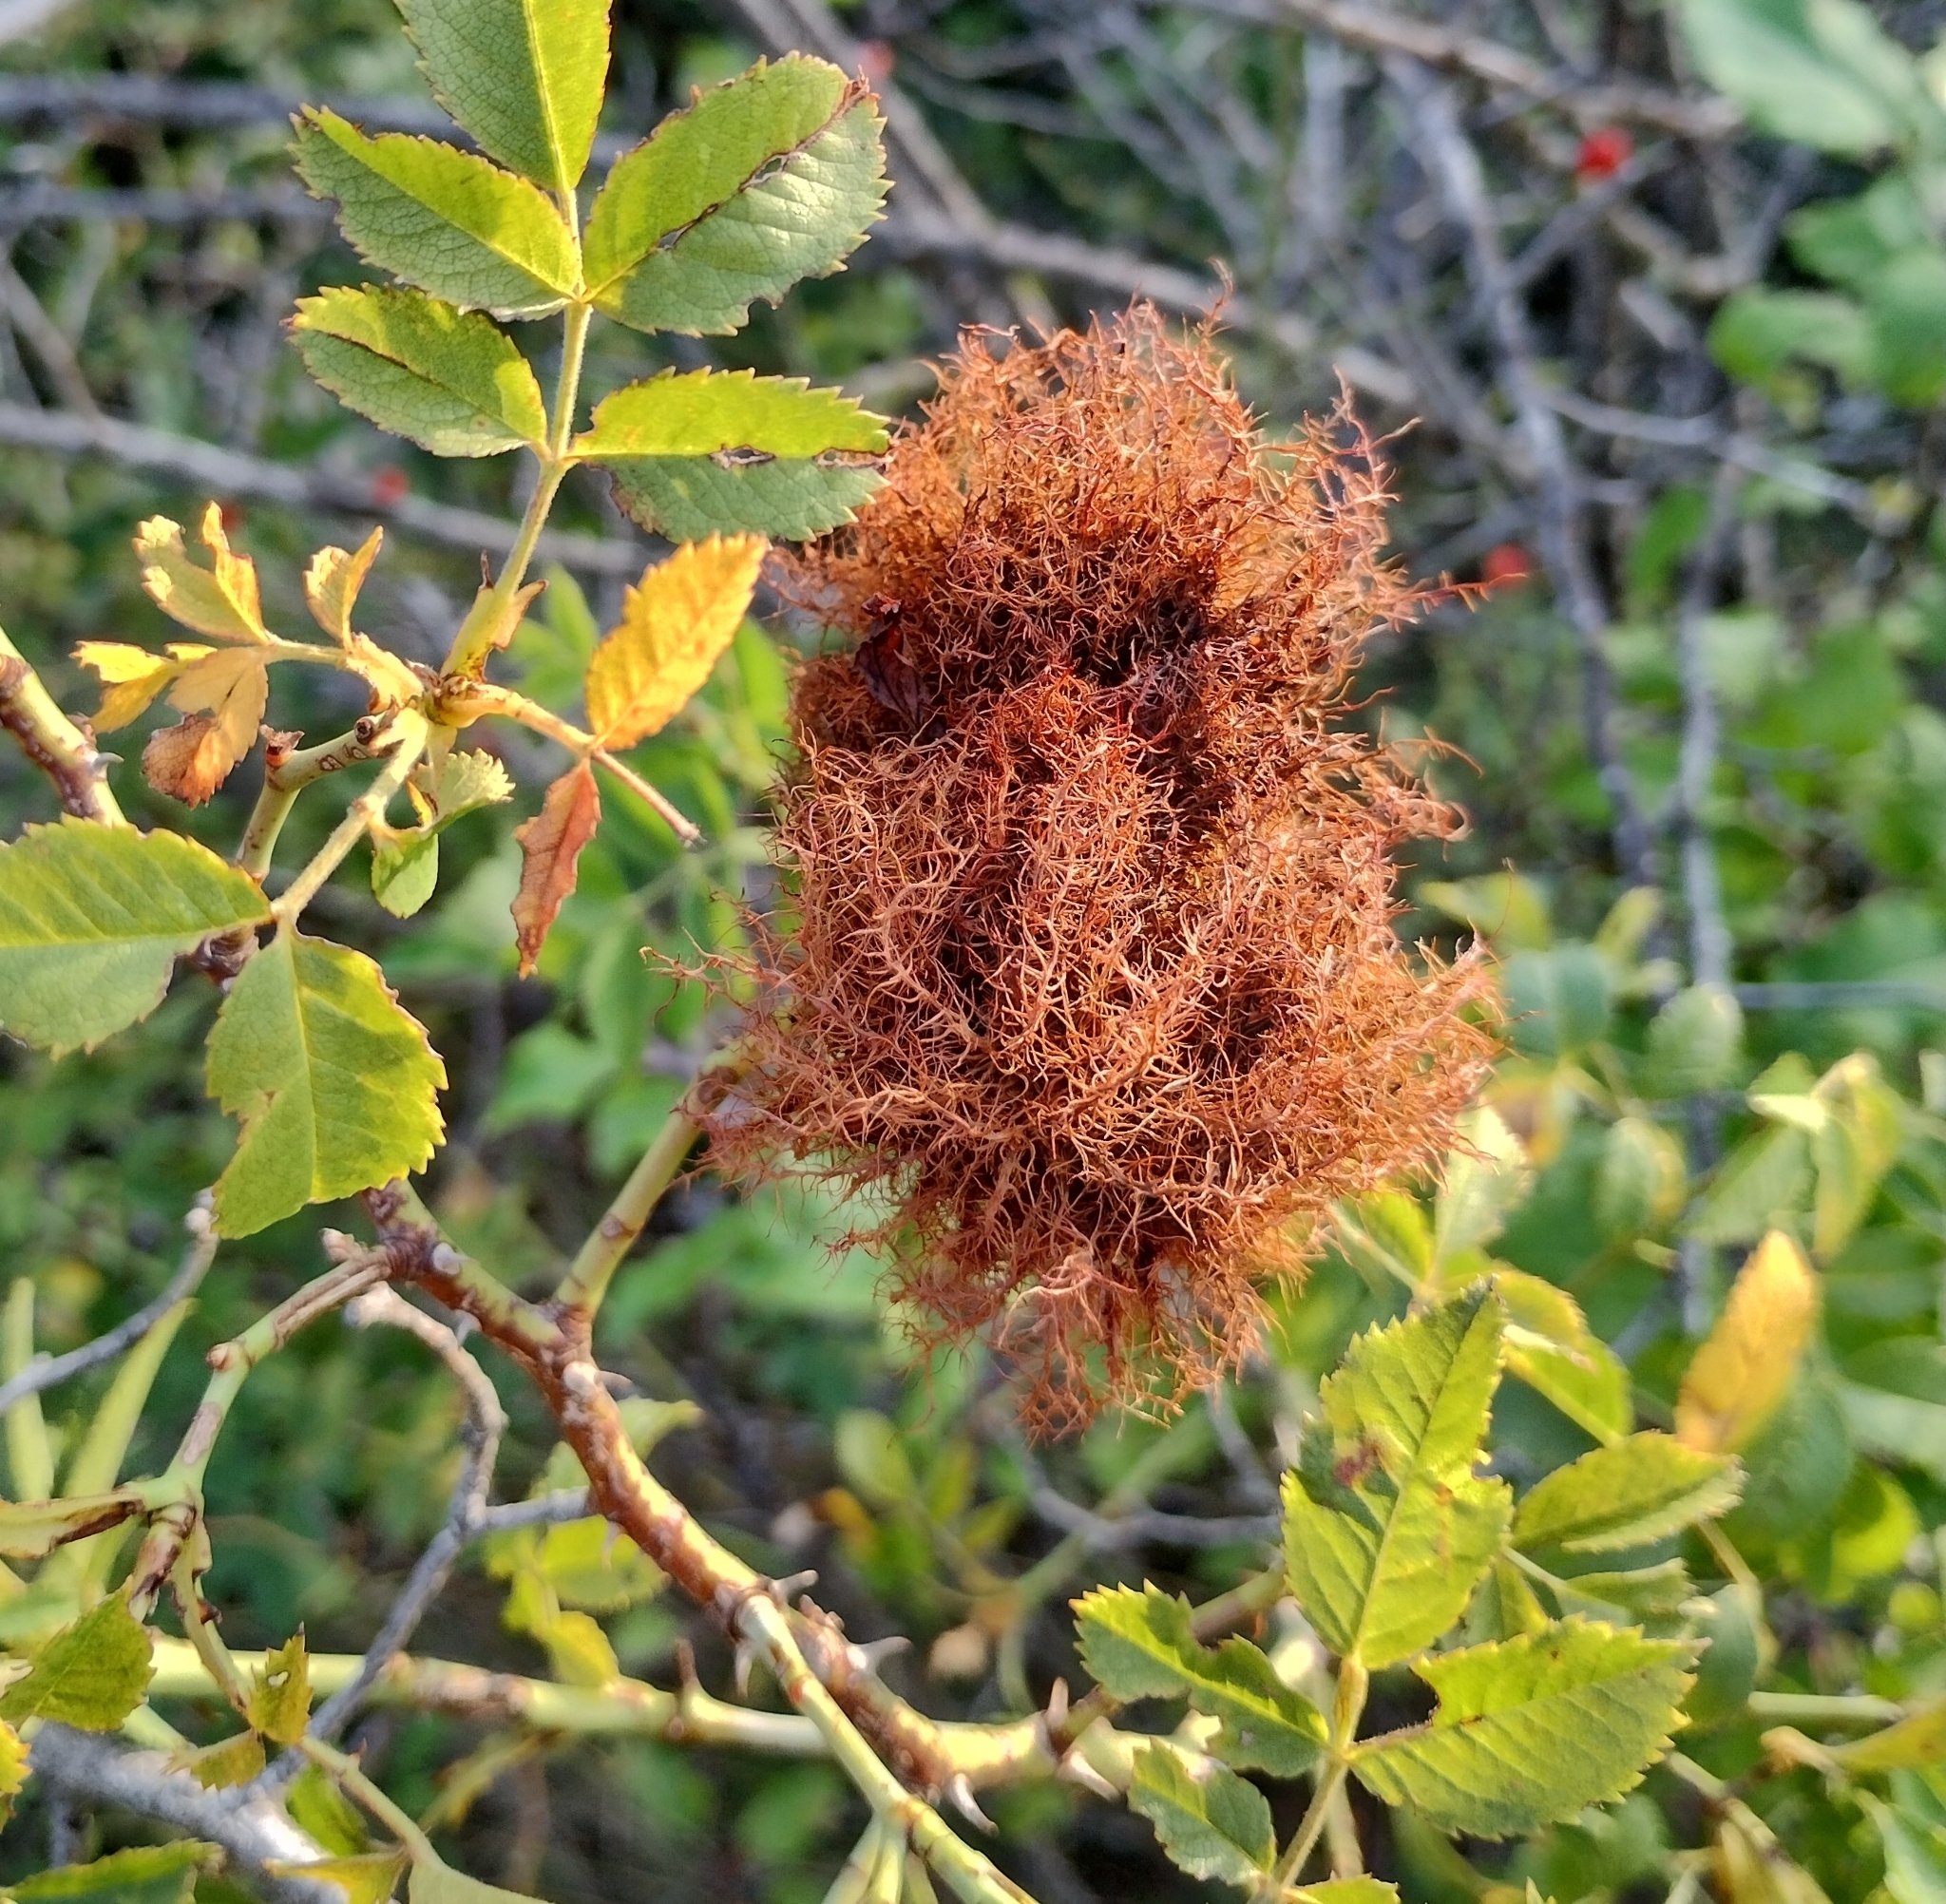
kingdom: Animalia
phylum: Arthropoda
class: Insecta
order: Hymenoptera
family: Cynipidae
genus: Diplolepis
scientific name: Diplolepis rosae
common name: Bedeguar gall
